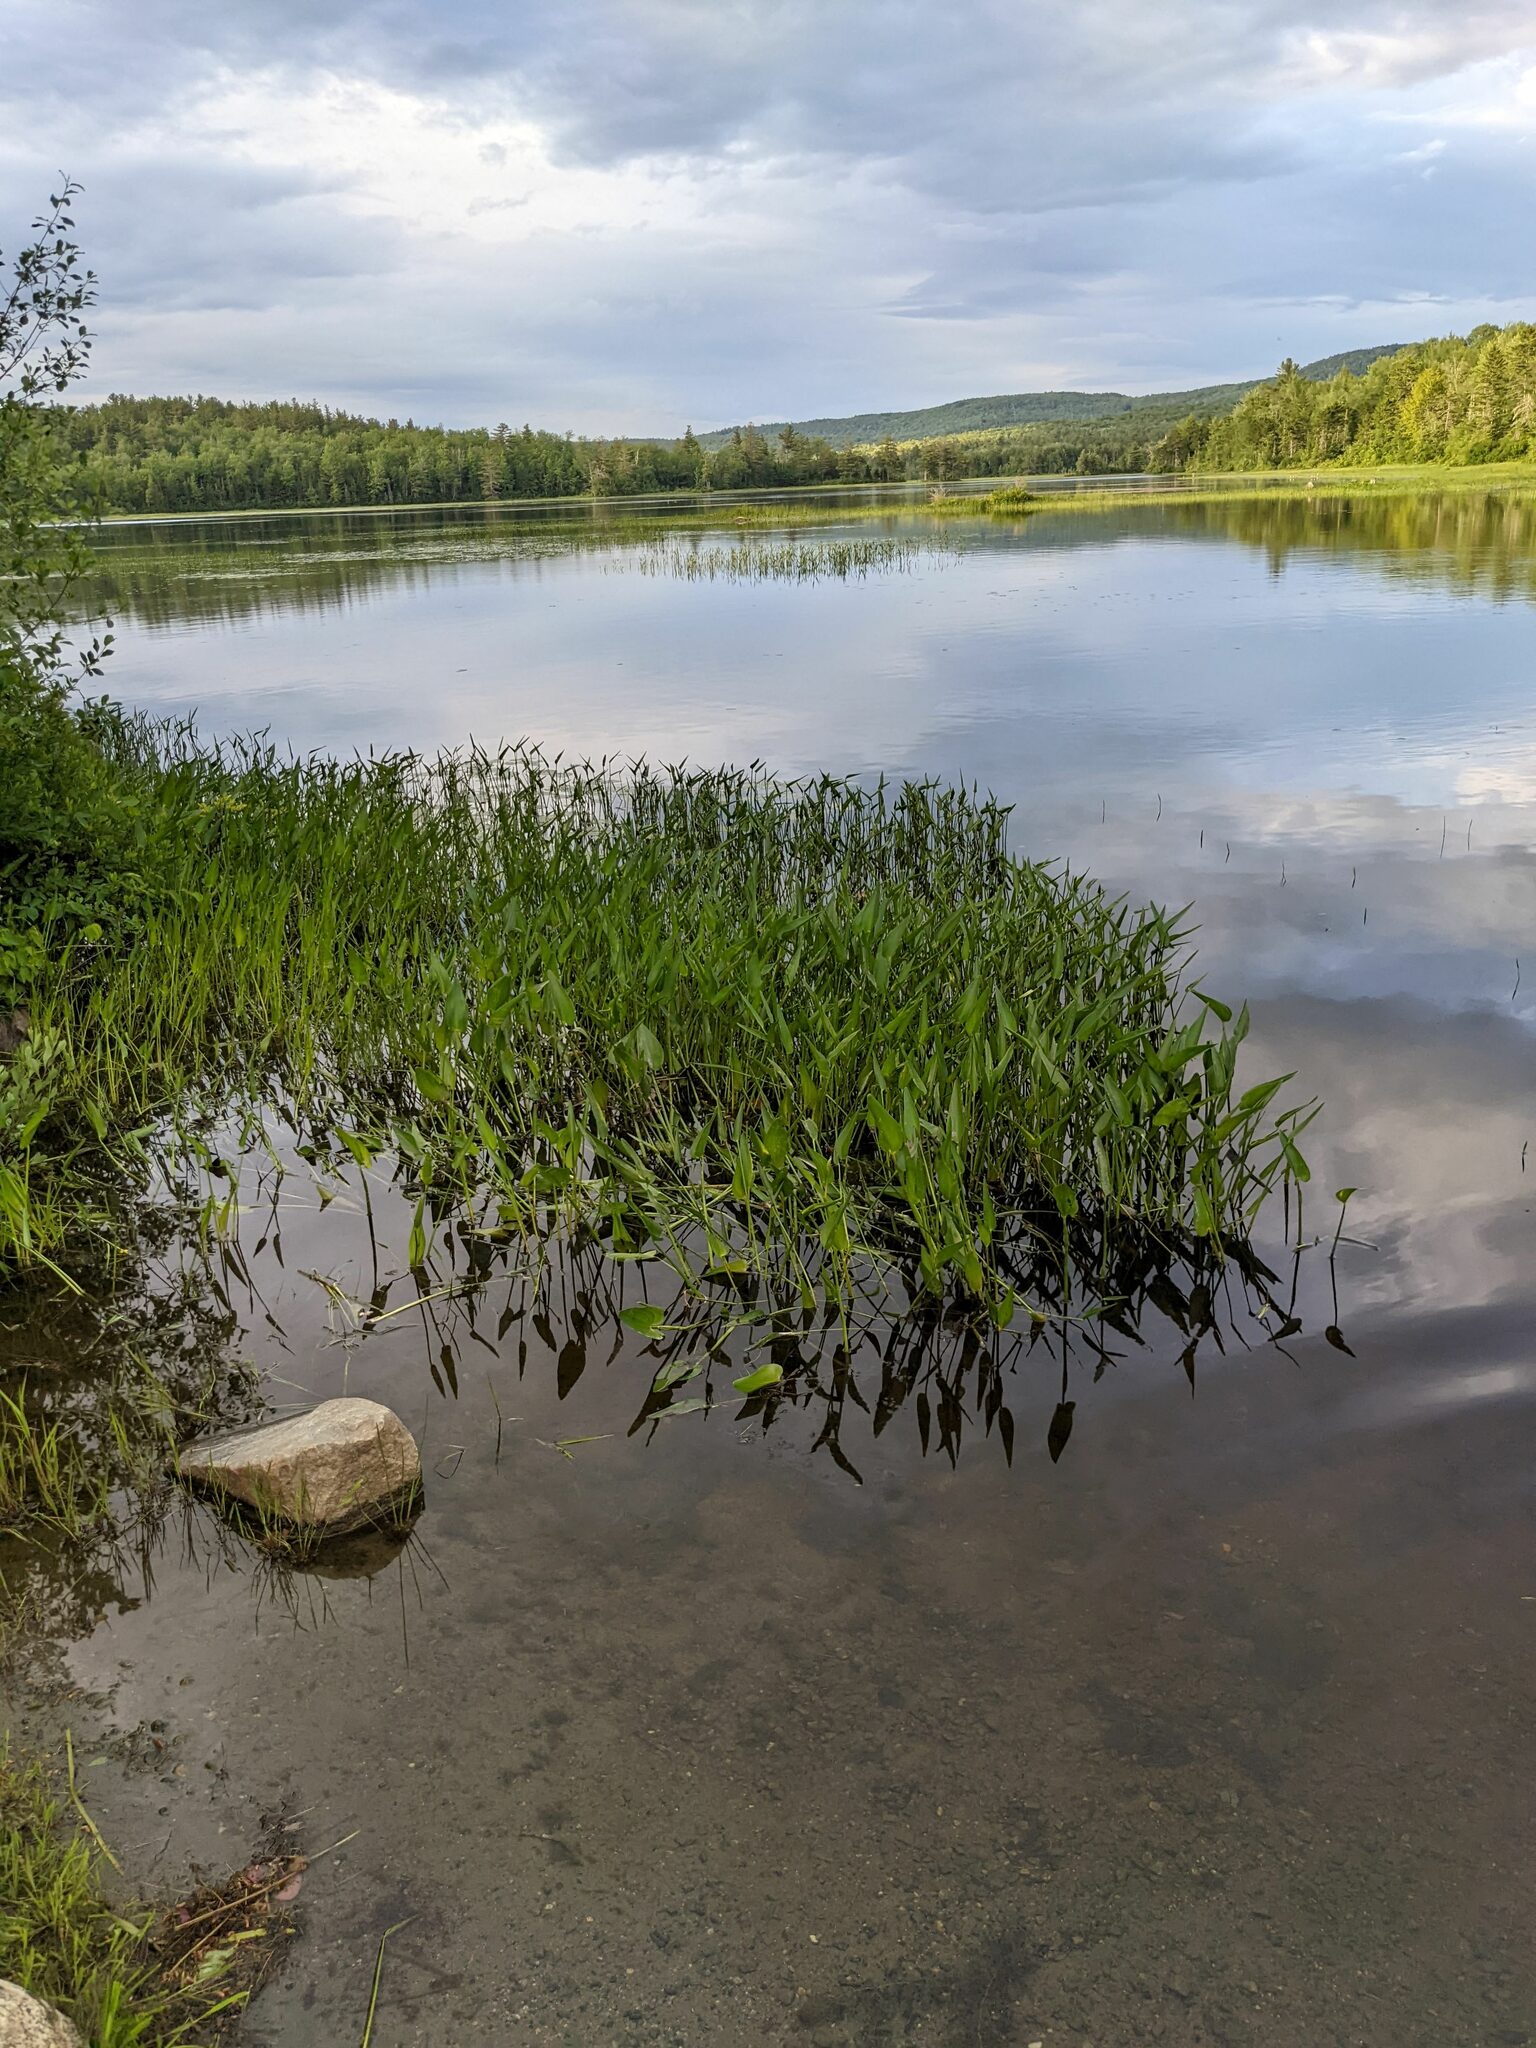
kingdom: Plantae
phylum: Tracheophyta
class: Liliopsida
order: Commelinales
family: Pontederiaceae
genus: Pontederia
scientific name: Pontederia cordata
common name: Pickerelweed
